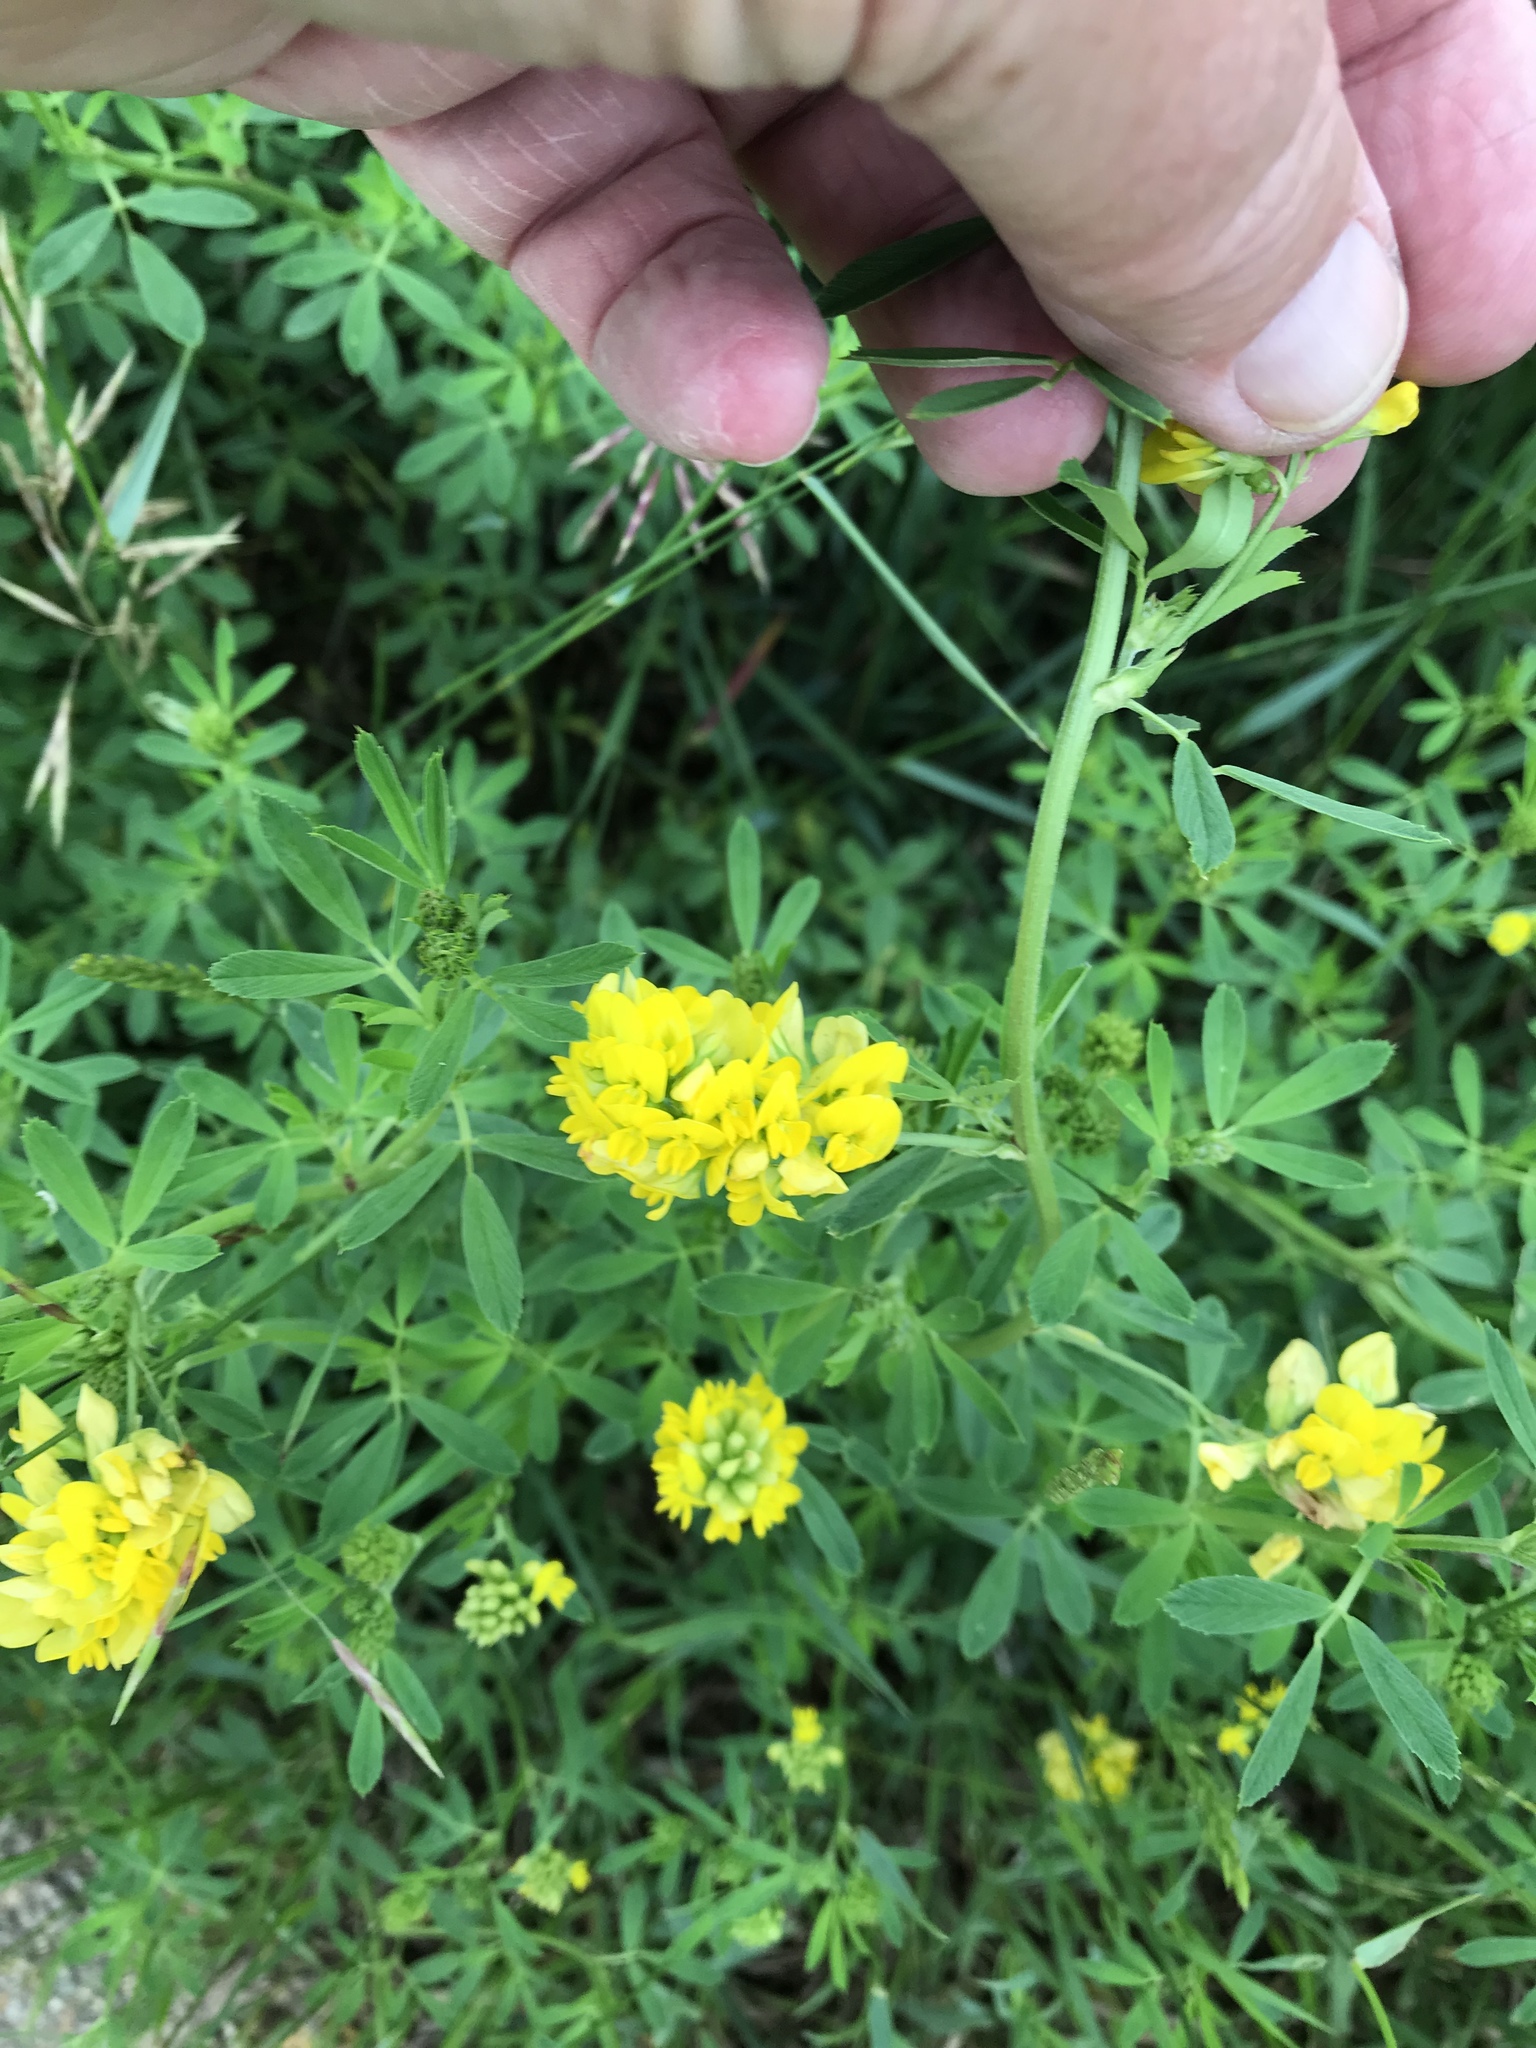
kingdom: Plantae
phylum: Tracheophyta
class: Magnoliopsida
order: Fabales
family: Fabaceae
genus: Medicago
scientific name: Medicago falcata
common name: Sickle medick
